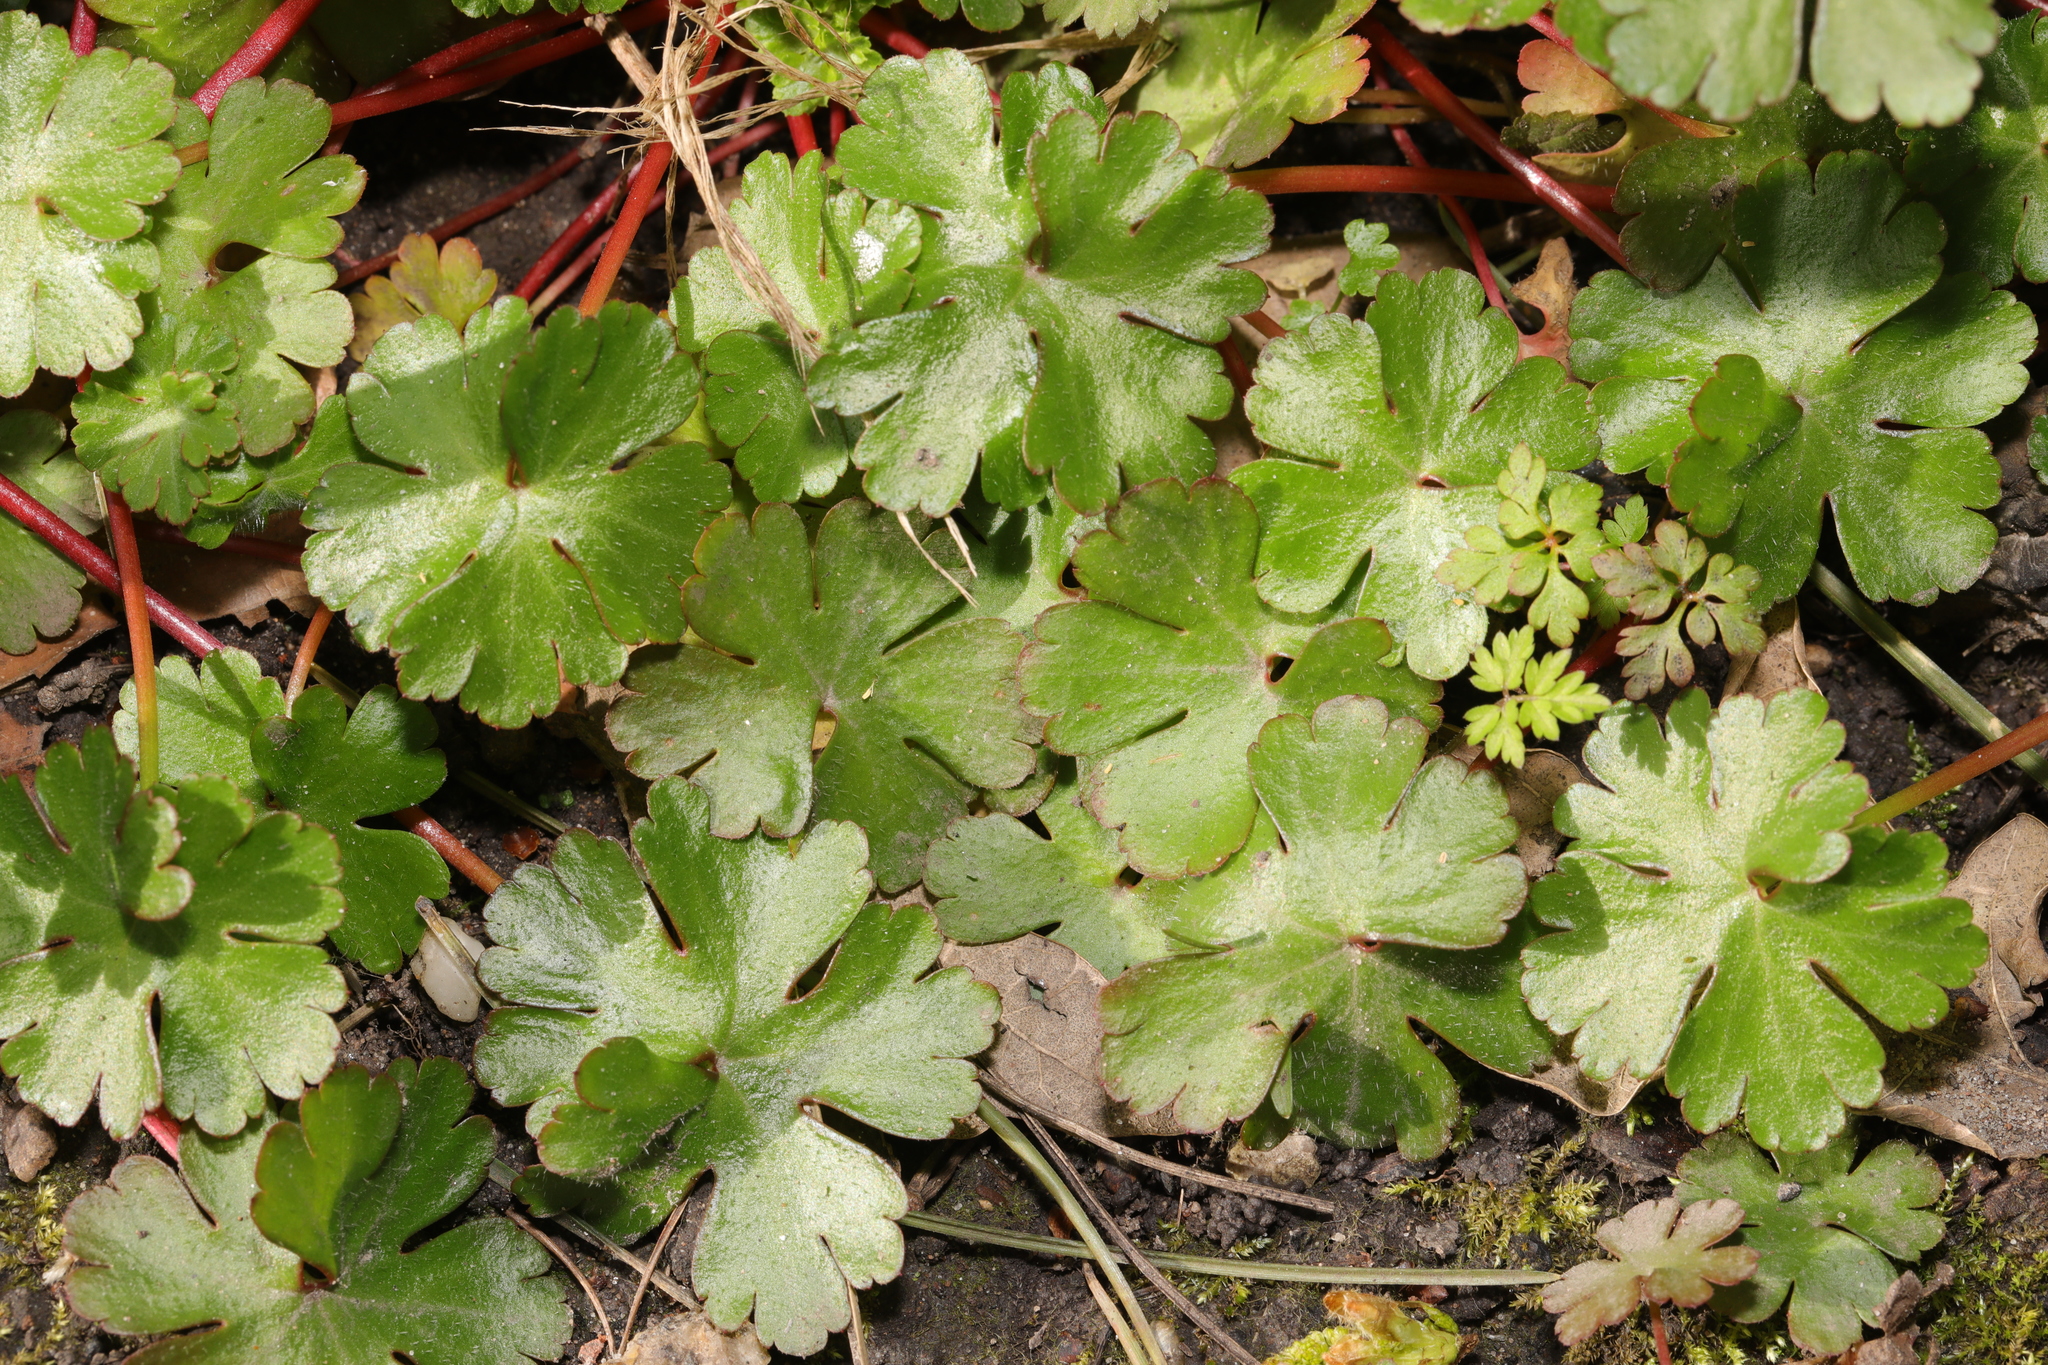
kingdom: Plantae
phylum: Tracheophyta
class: Magnoliopsida
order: Geraniales
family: Geraniaceae
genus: Geranium
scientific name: Geranium lucidum
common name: Shining crane's-bill
